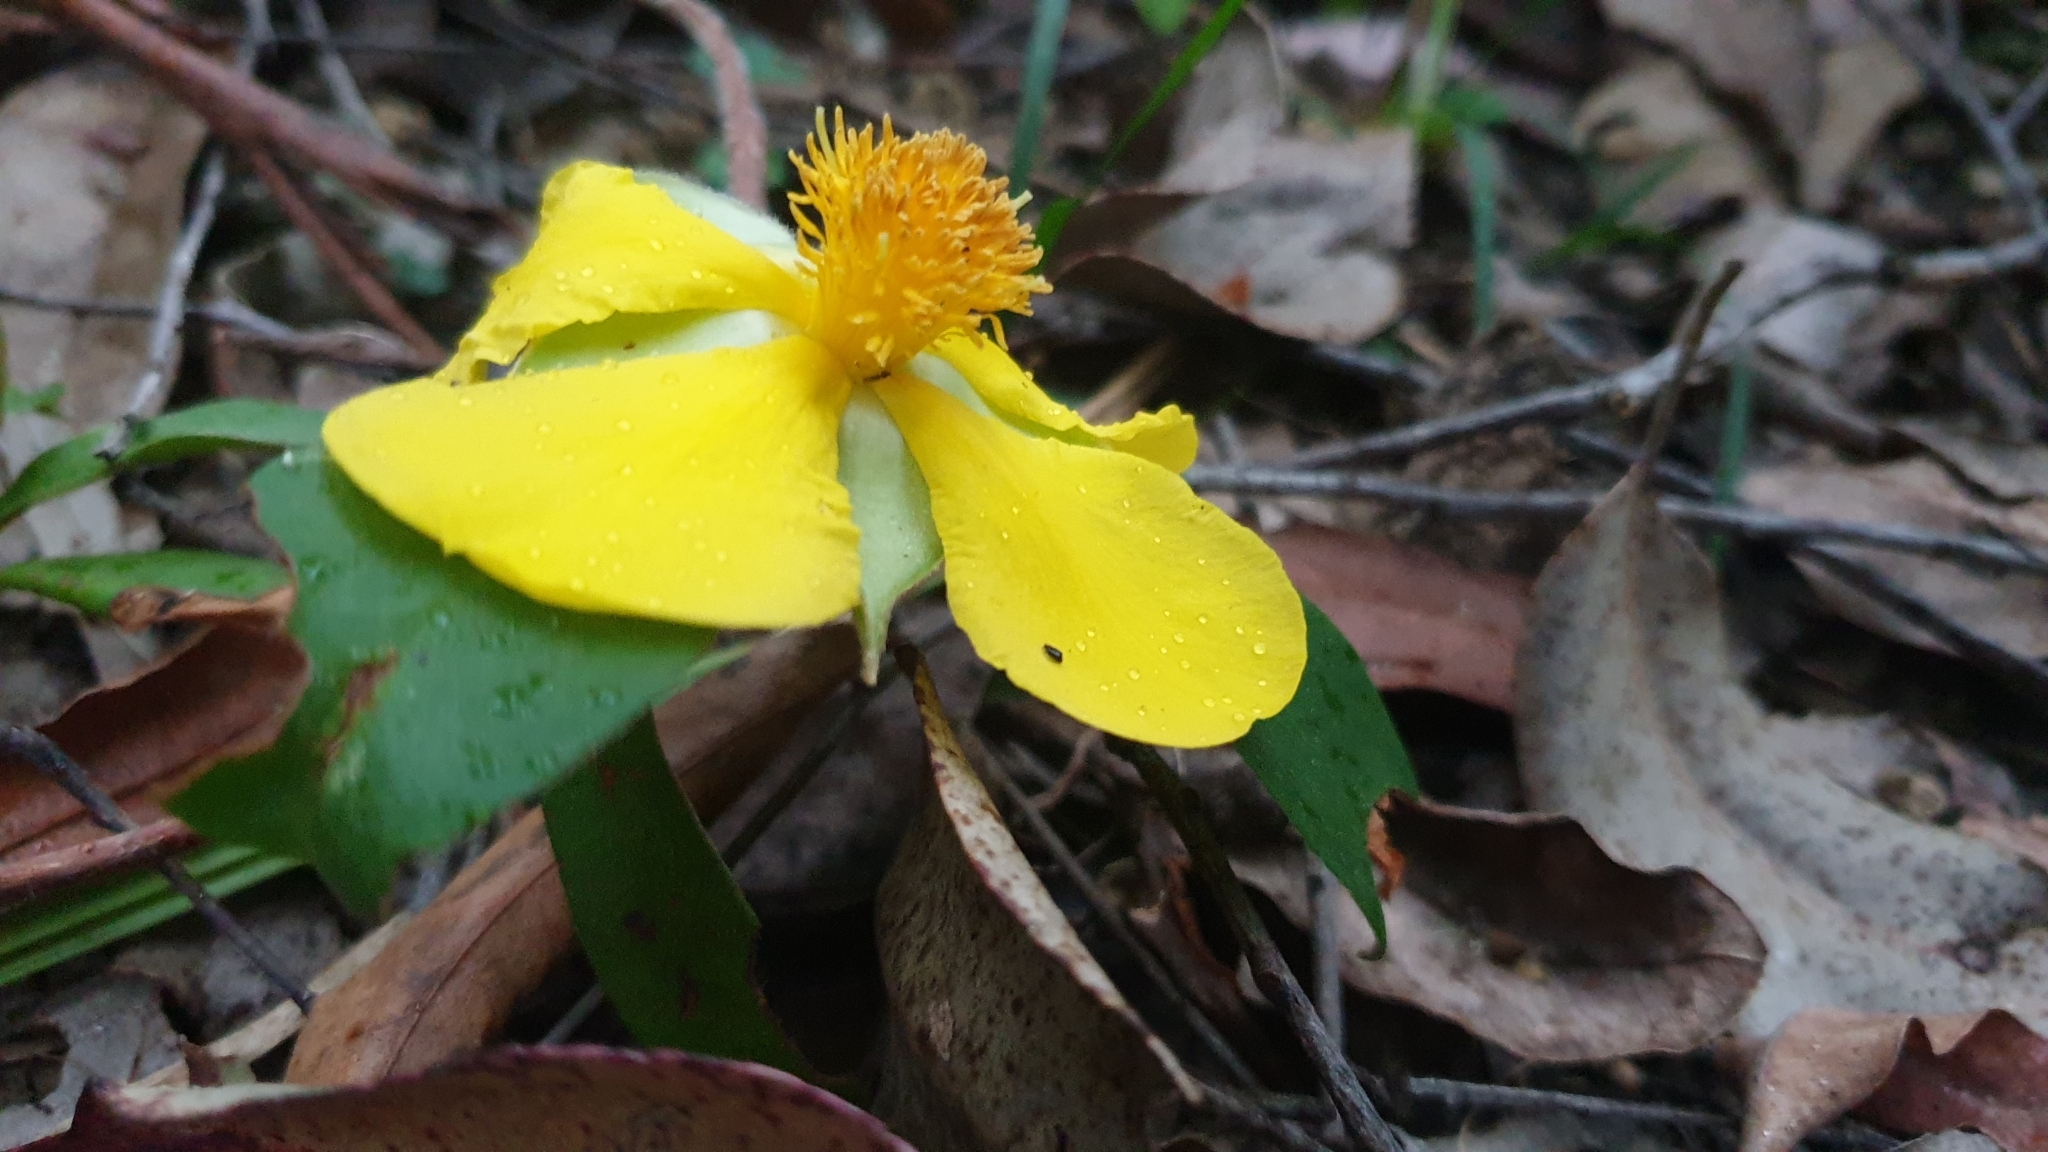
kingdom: Plantae
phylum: Tracheophyta
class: Magnoliopsida
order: Dilleniales
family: Dilleniaceae
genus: Hibbertia
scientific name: Hibbertia scandens
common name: Climbing guinea-flower
